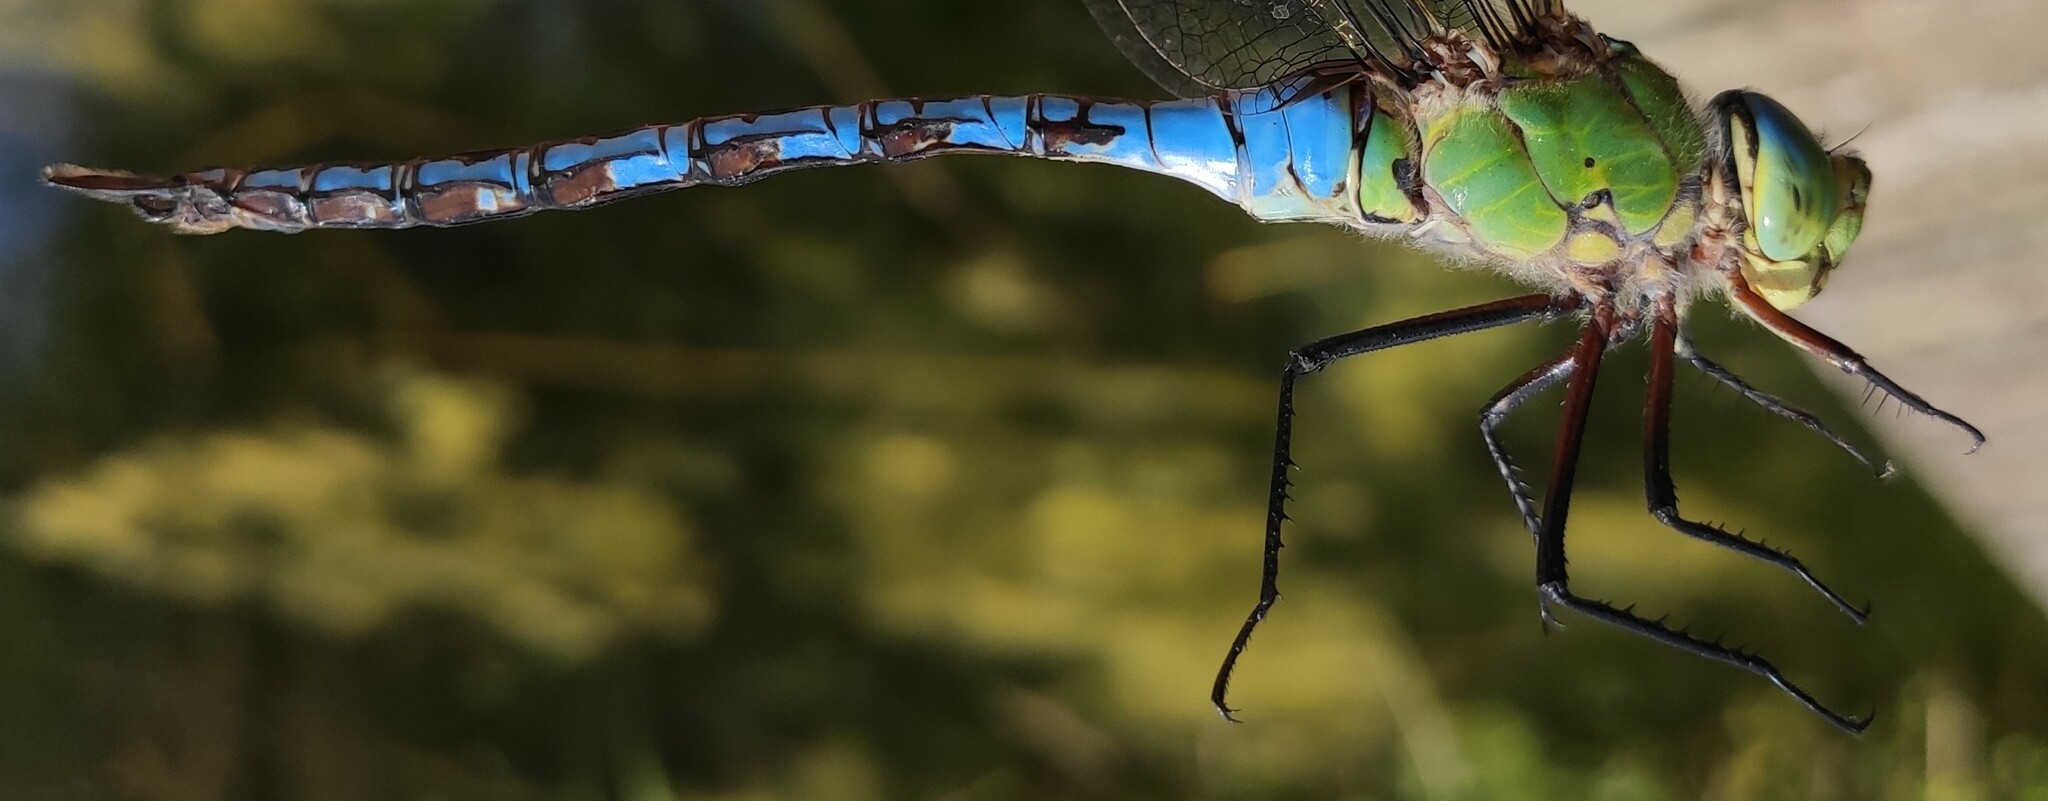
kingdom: Animalia
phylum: Arthropoda
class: Insecta
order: Odonata
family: Aeshnidae
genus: Anax
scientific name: Anax imperator
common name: Emperor dragonfly
